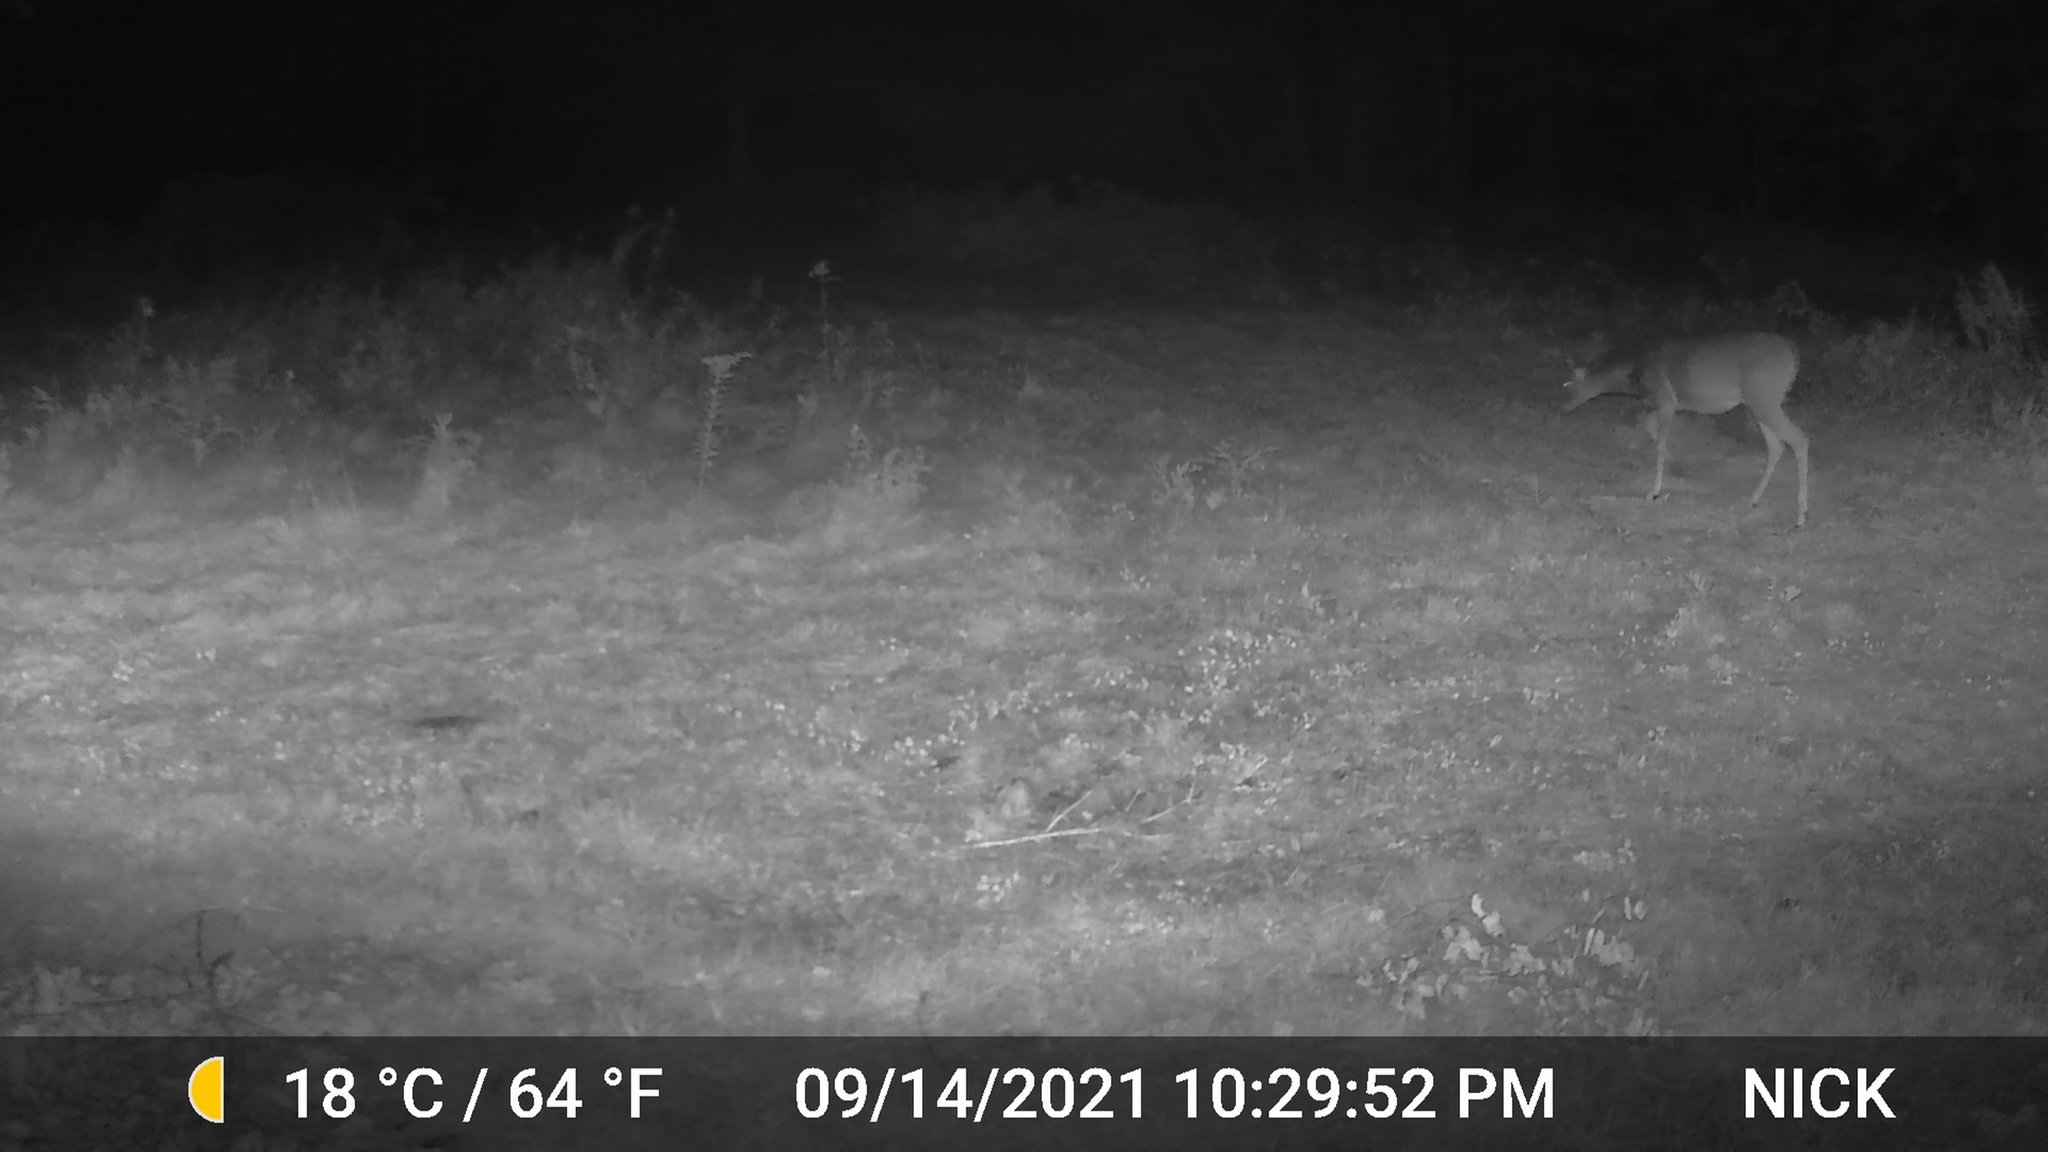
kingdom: Animalia
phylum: Chordata
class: Mammalia
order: Artiodactyla
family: Cervidae
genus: Odocoileus
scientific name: Odocoileus virginianus
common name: White-tailed deer
